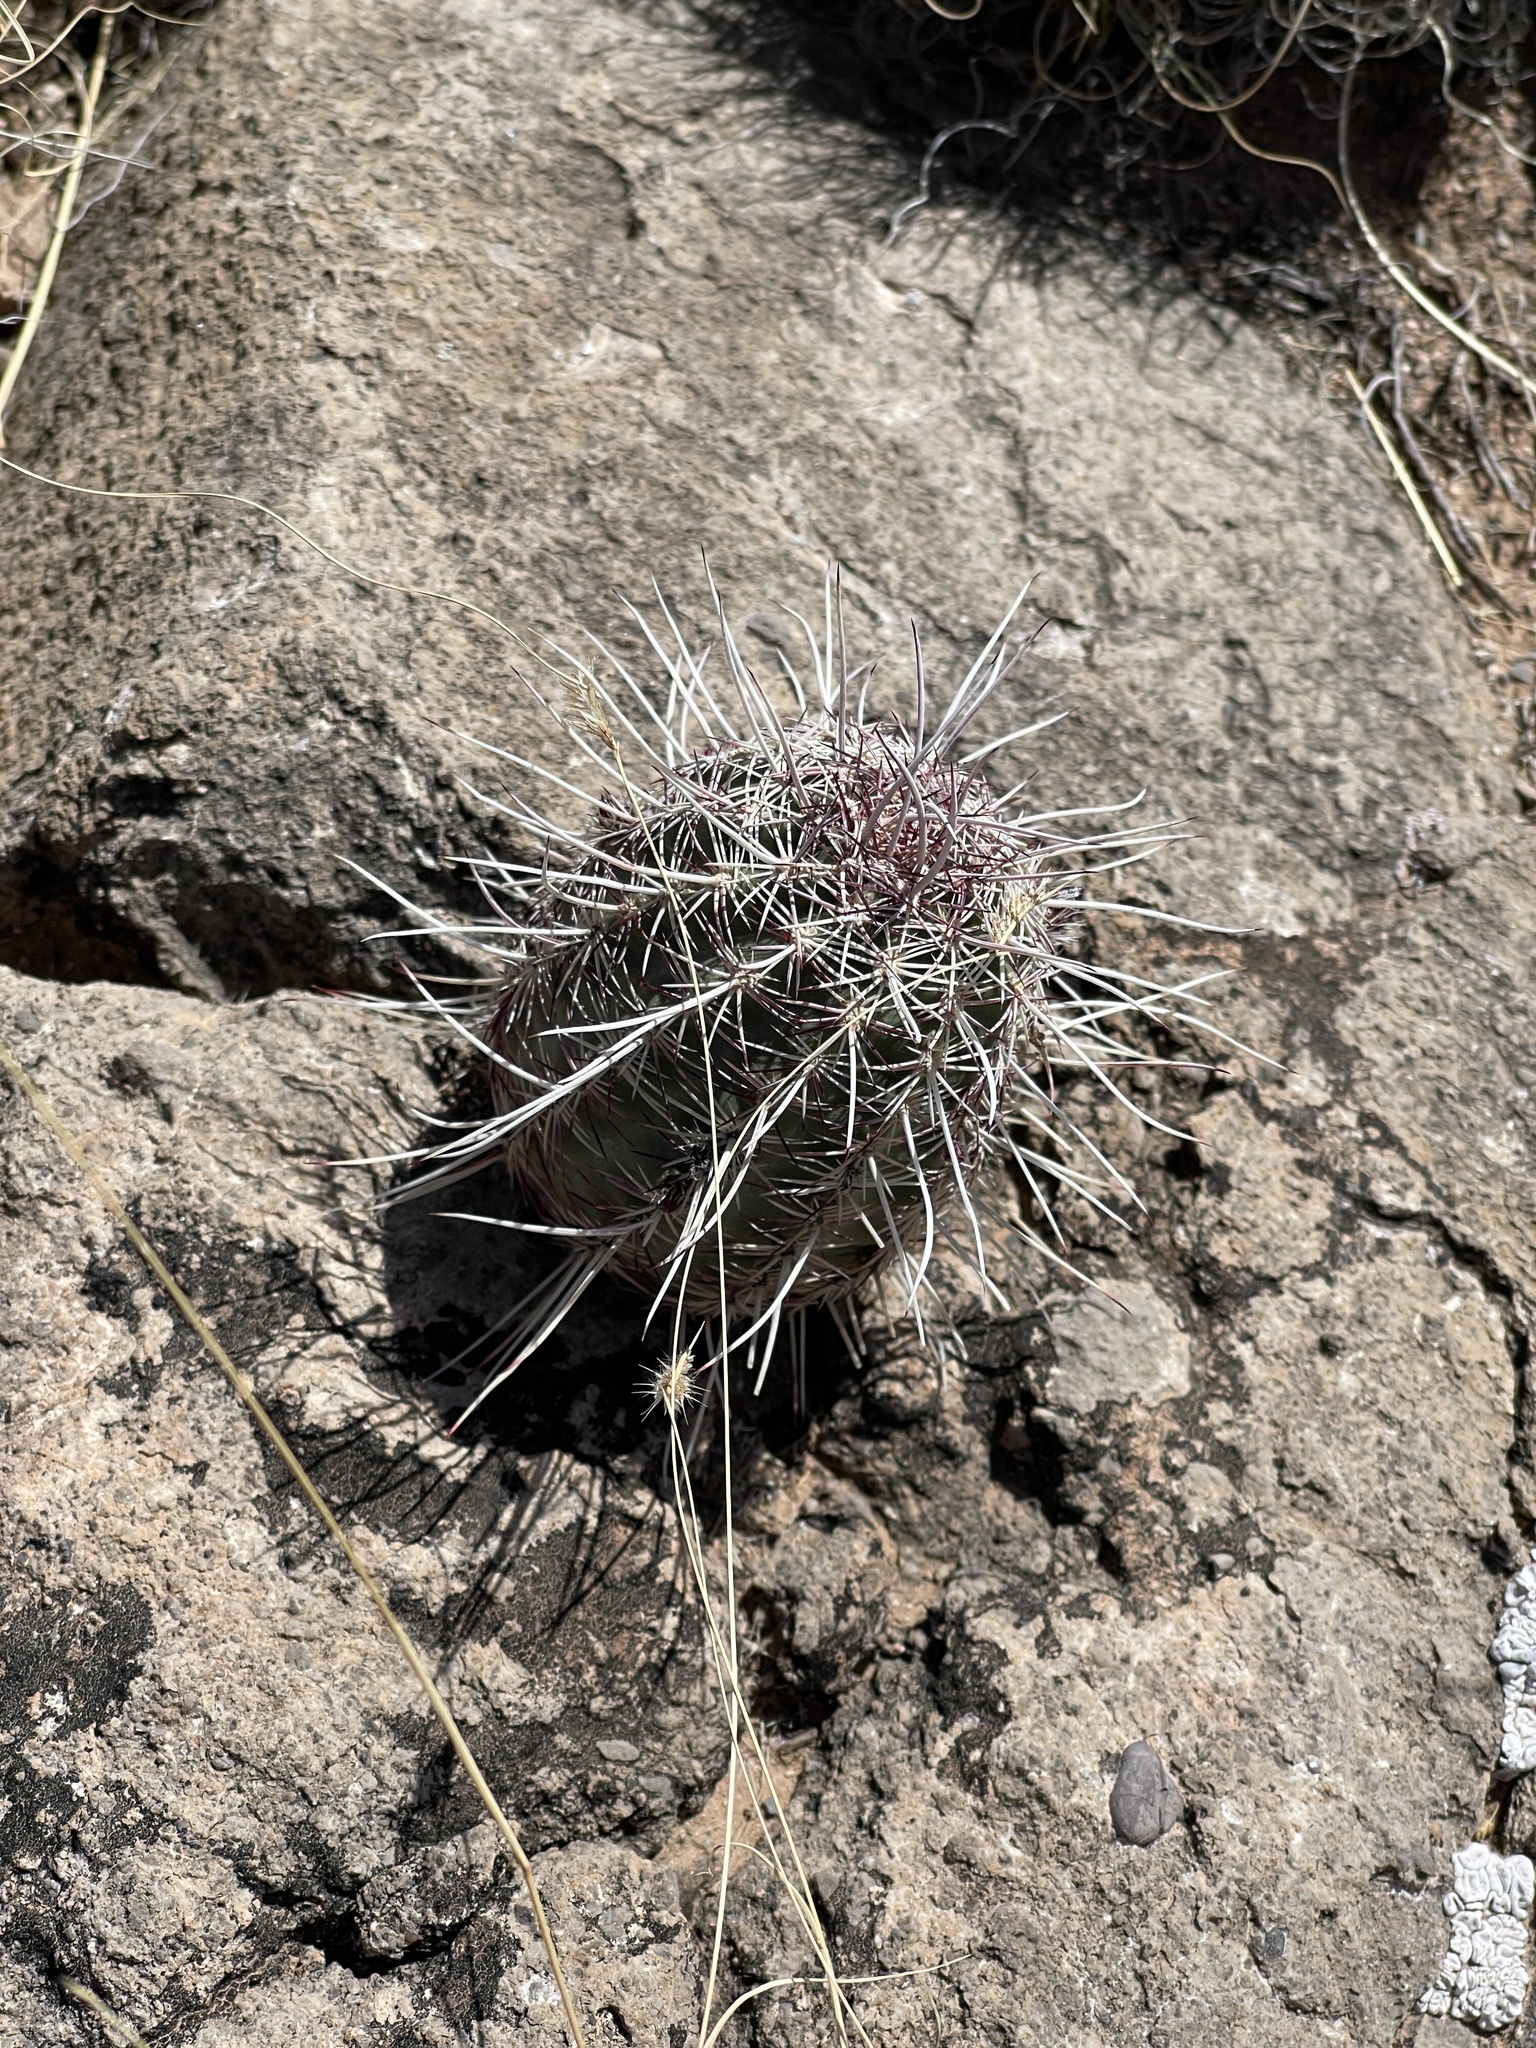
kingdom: Plantae
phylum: Tracheophyta
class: Magnoliopsida
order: Caryophyllales
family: Cactaceae
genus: Echinocereus
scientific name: Echinocereus viridiflorus
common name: Nylon hedgehog cactus
